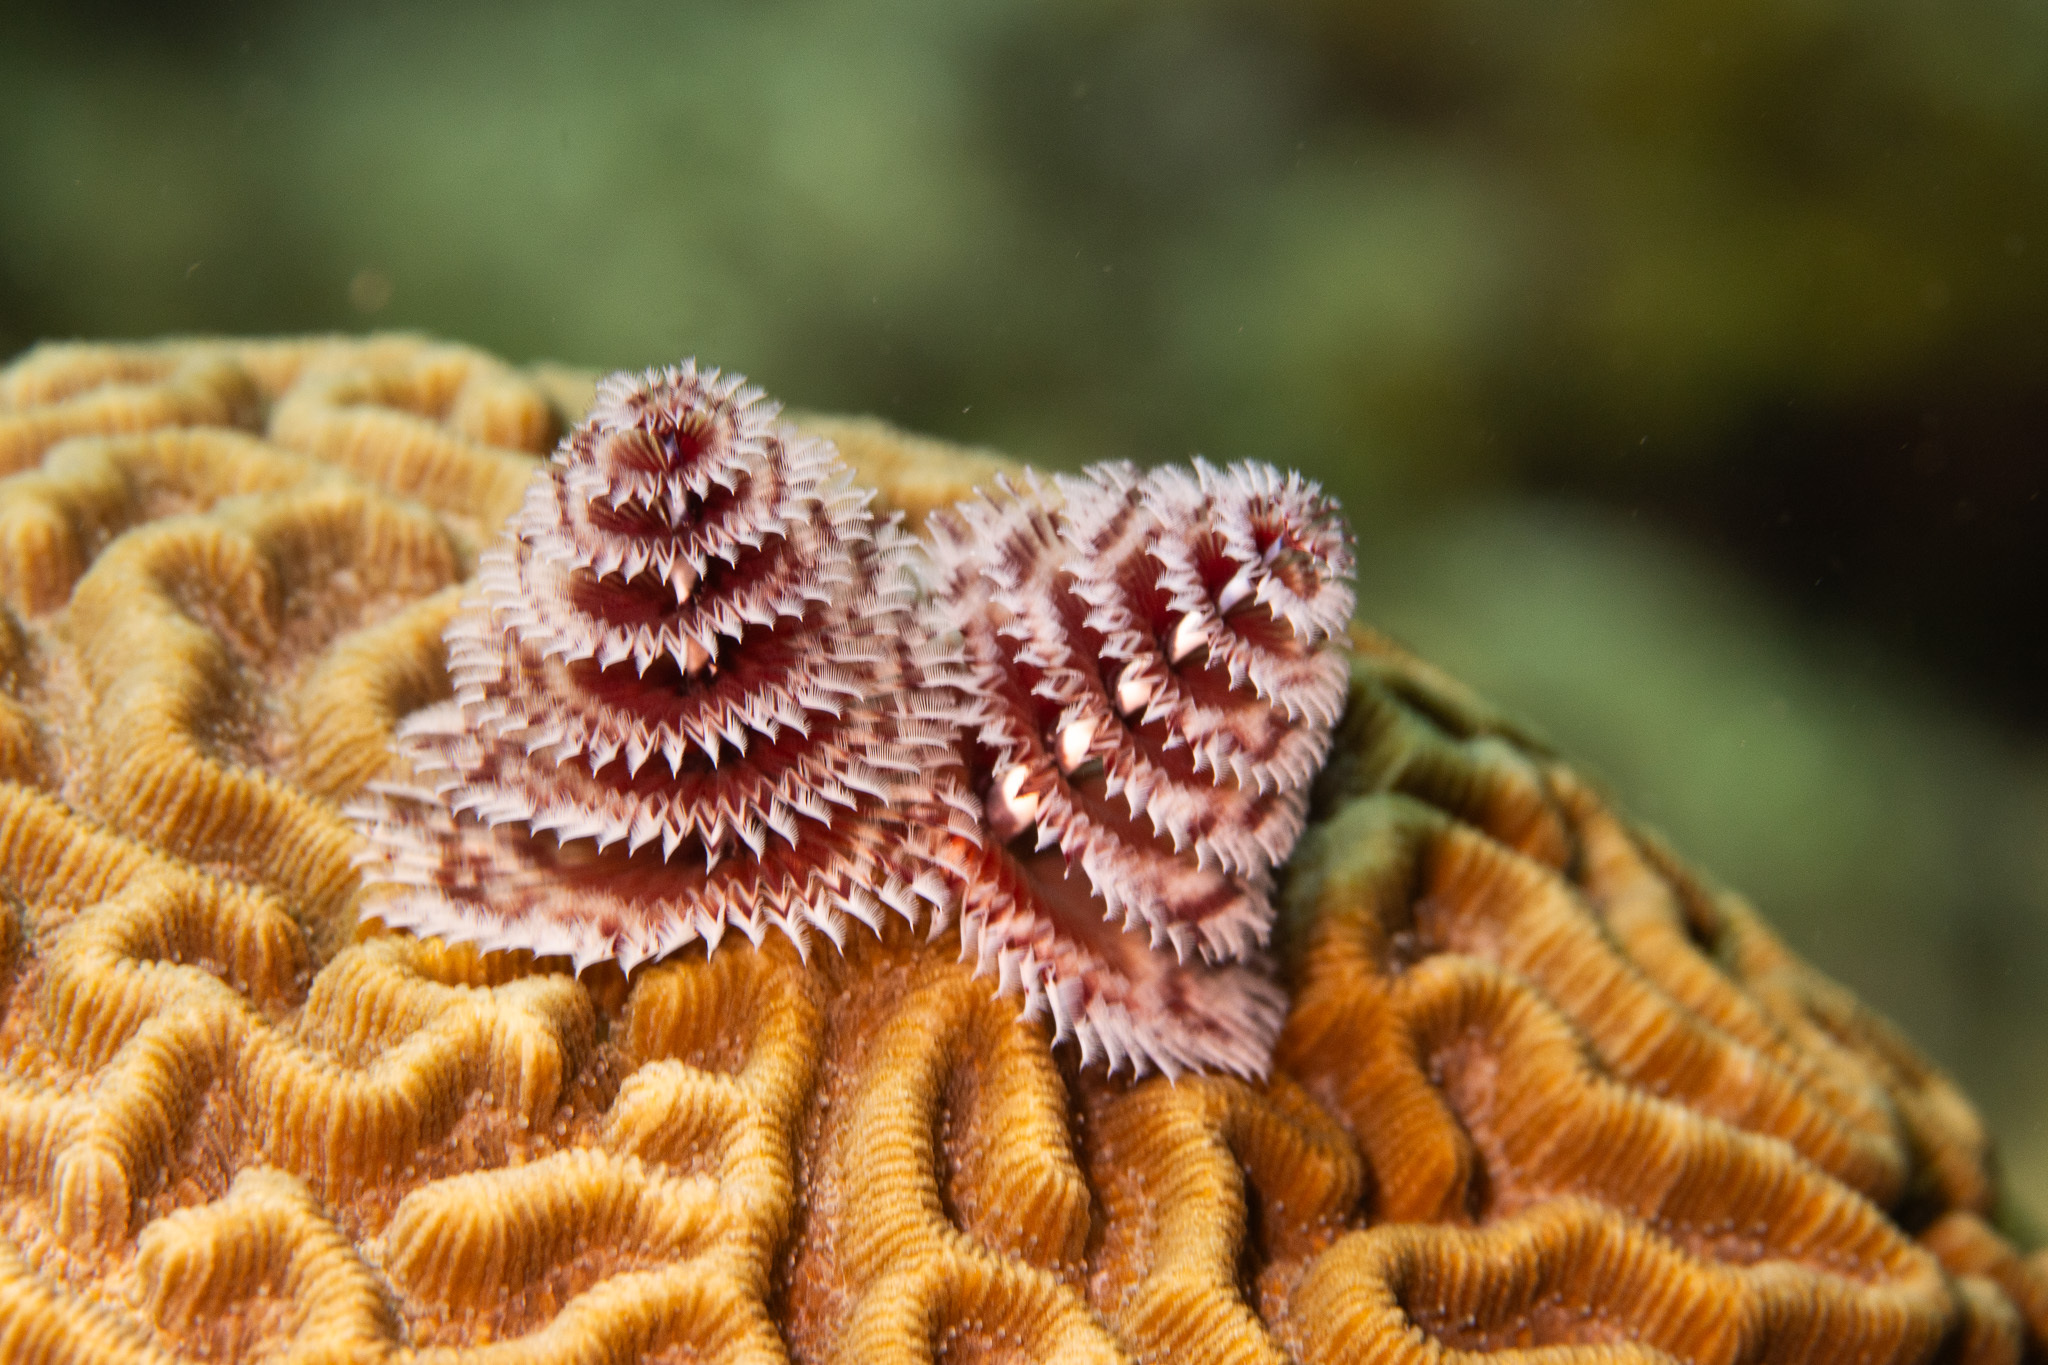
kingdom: Animalia
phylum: Annelida
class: Polychaeta
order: Sabellida
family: Serpulidae
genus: Spirobranchus
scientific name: Spirobranchus giganteus
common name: Christmas tree worm
